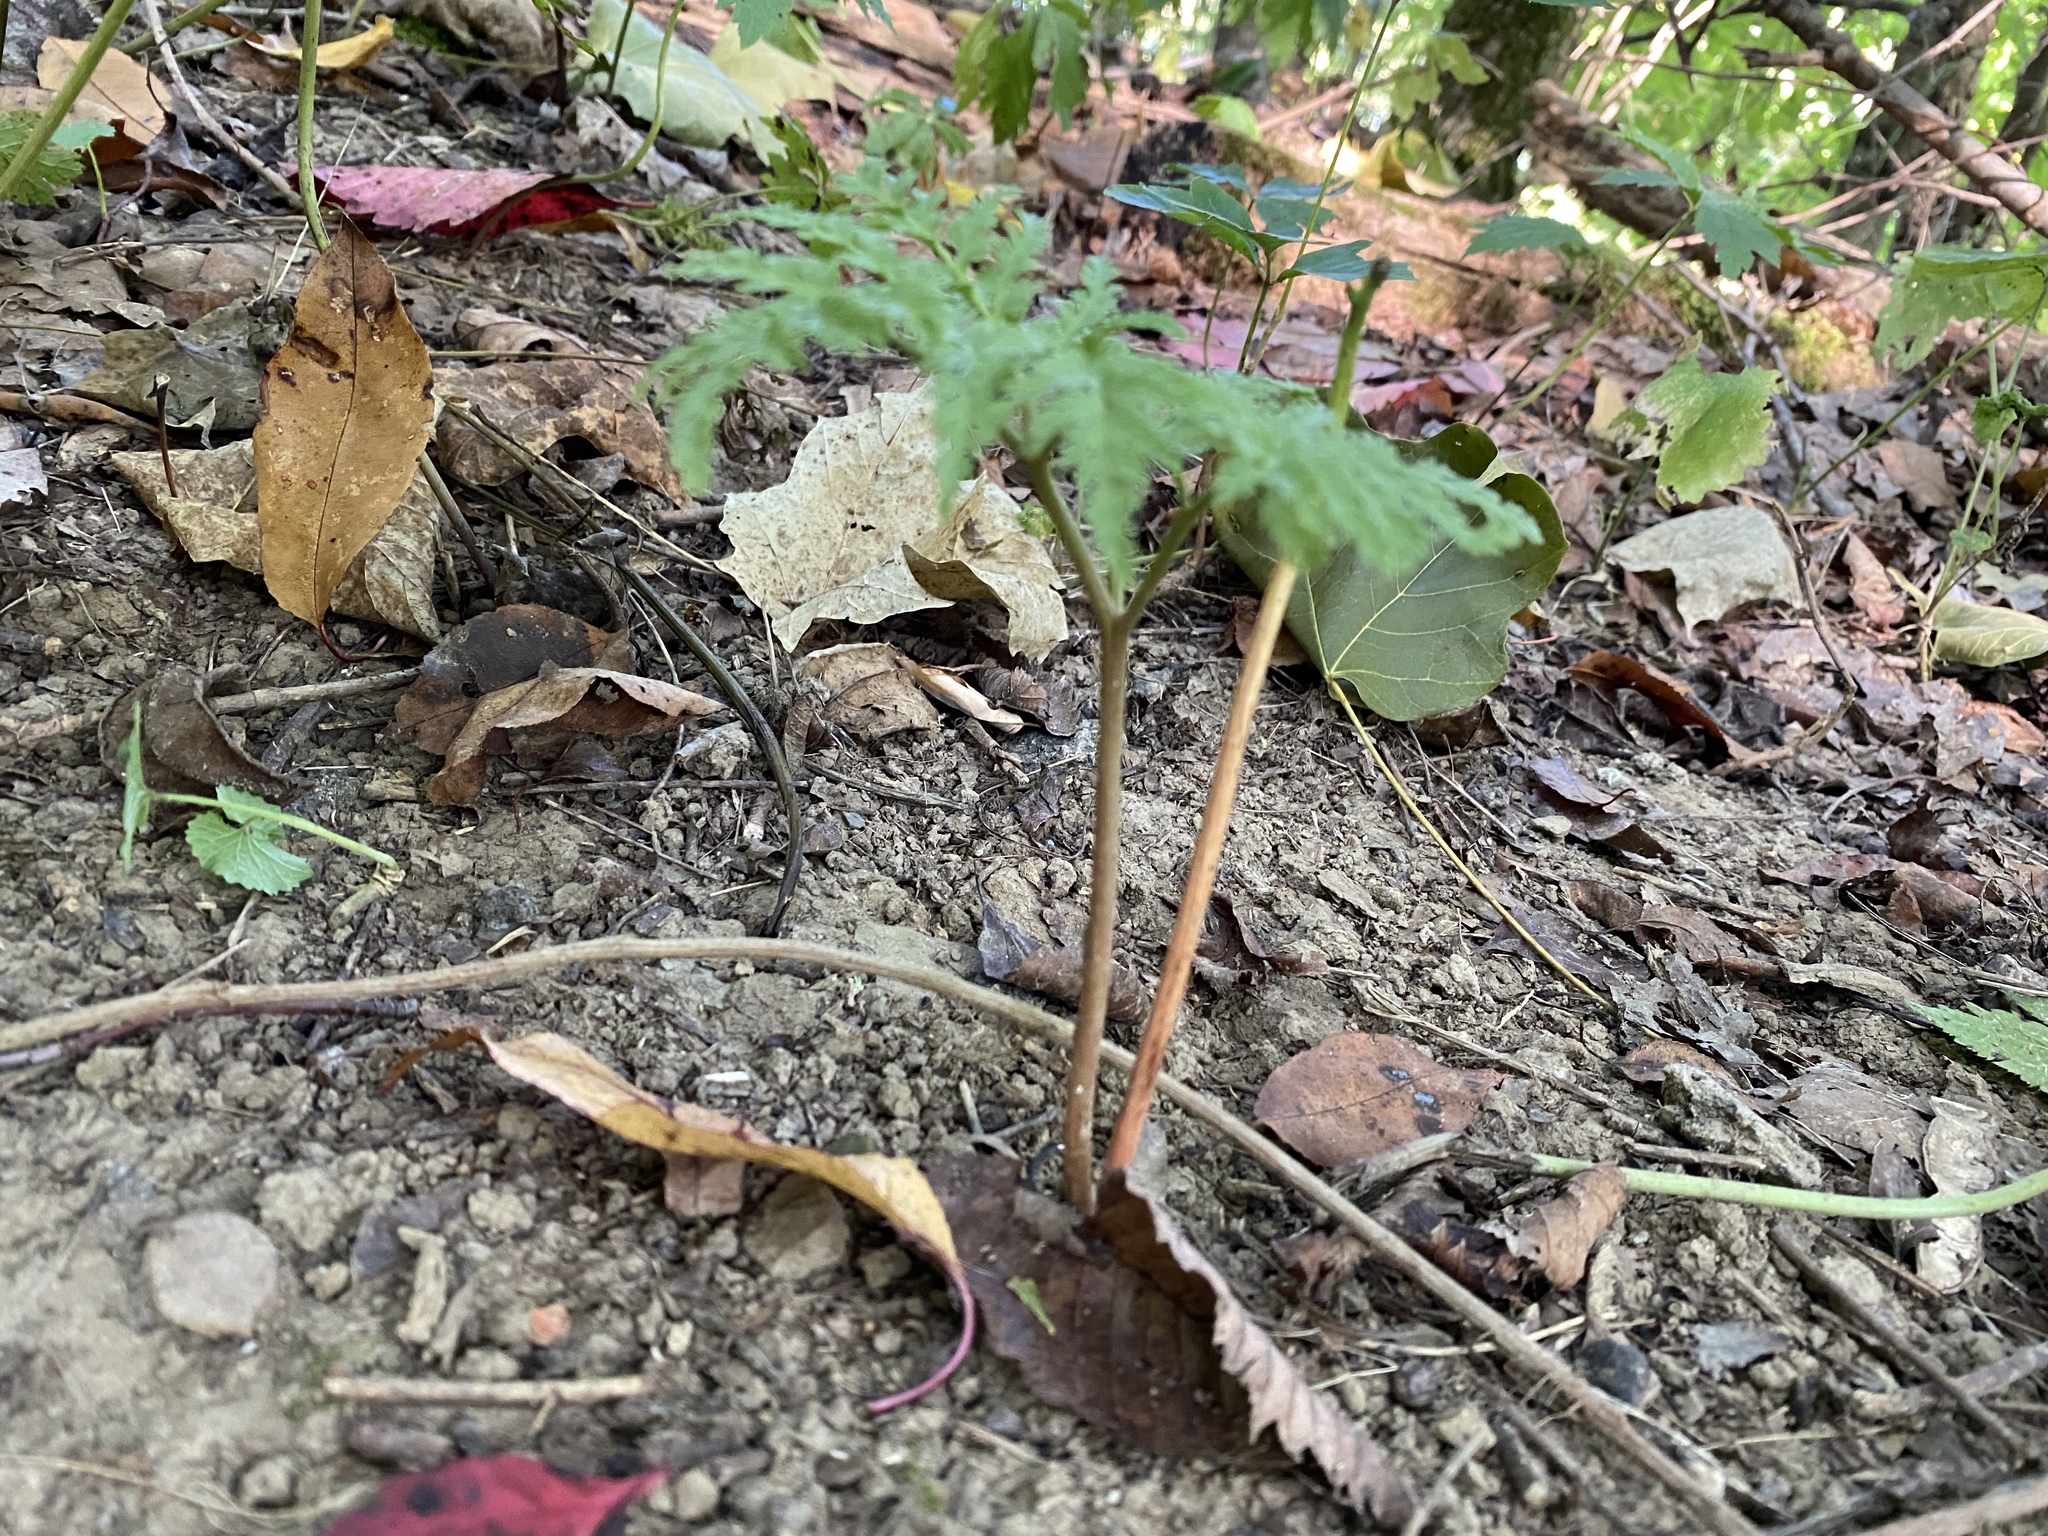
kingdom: Plantae
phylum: Tracheophyta
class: Polypodiopsida
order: Ophioglossales
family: Ophioglossaceae
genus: Sceptridium
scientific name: Sceptridium dissectum
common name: Cut-leaved grapefern
